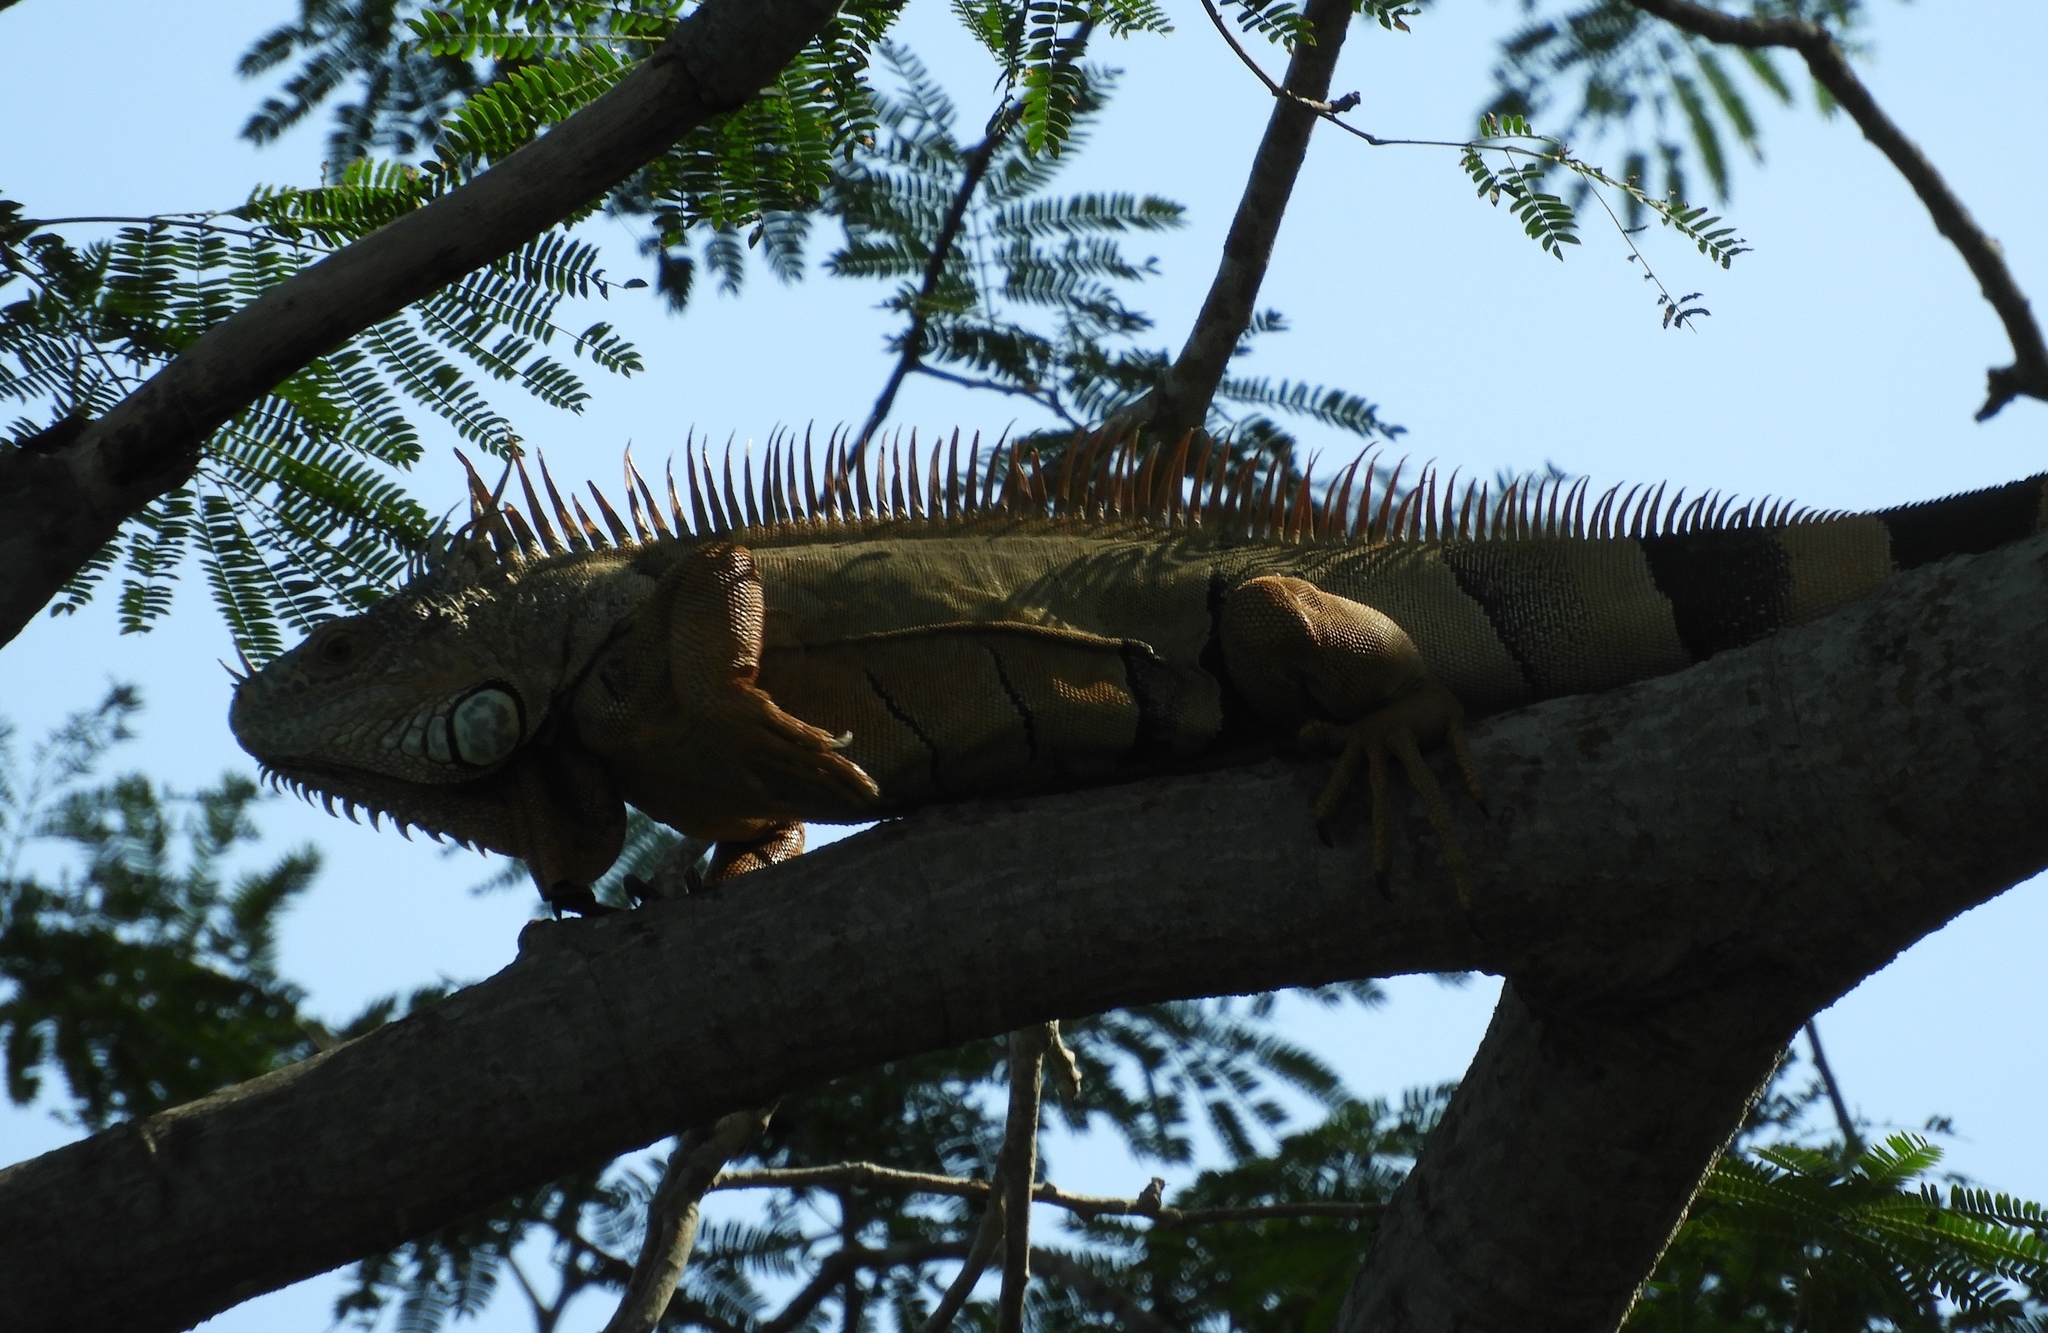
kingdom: Animalia
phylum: Chordata
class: Squamata
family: Iguanidae
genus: Iguana
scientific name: Iguana iguana
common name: Green iguana
